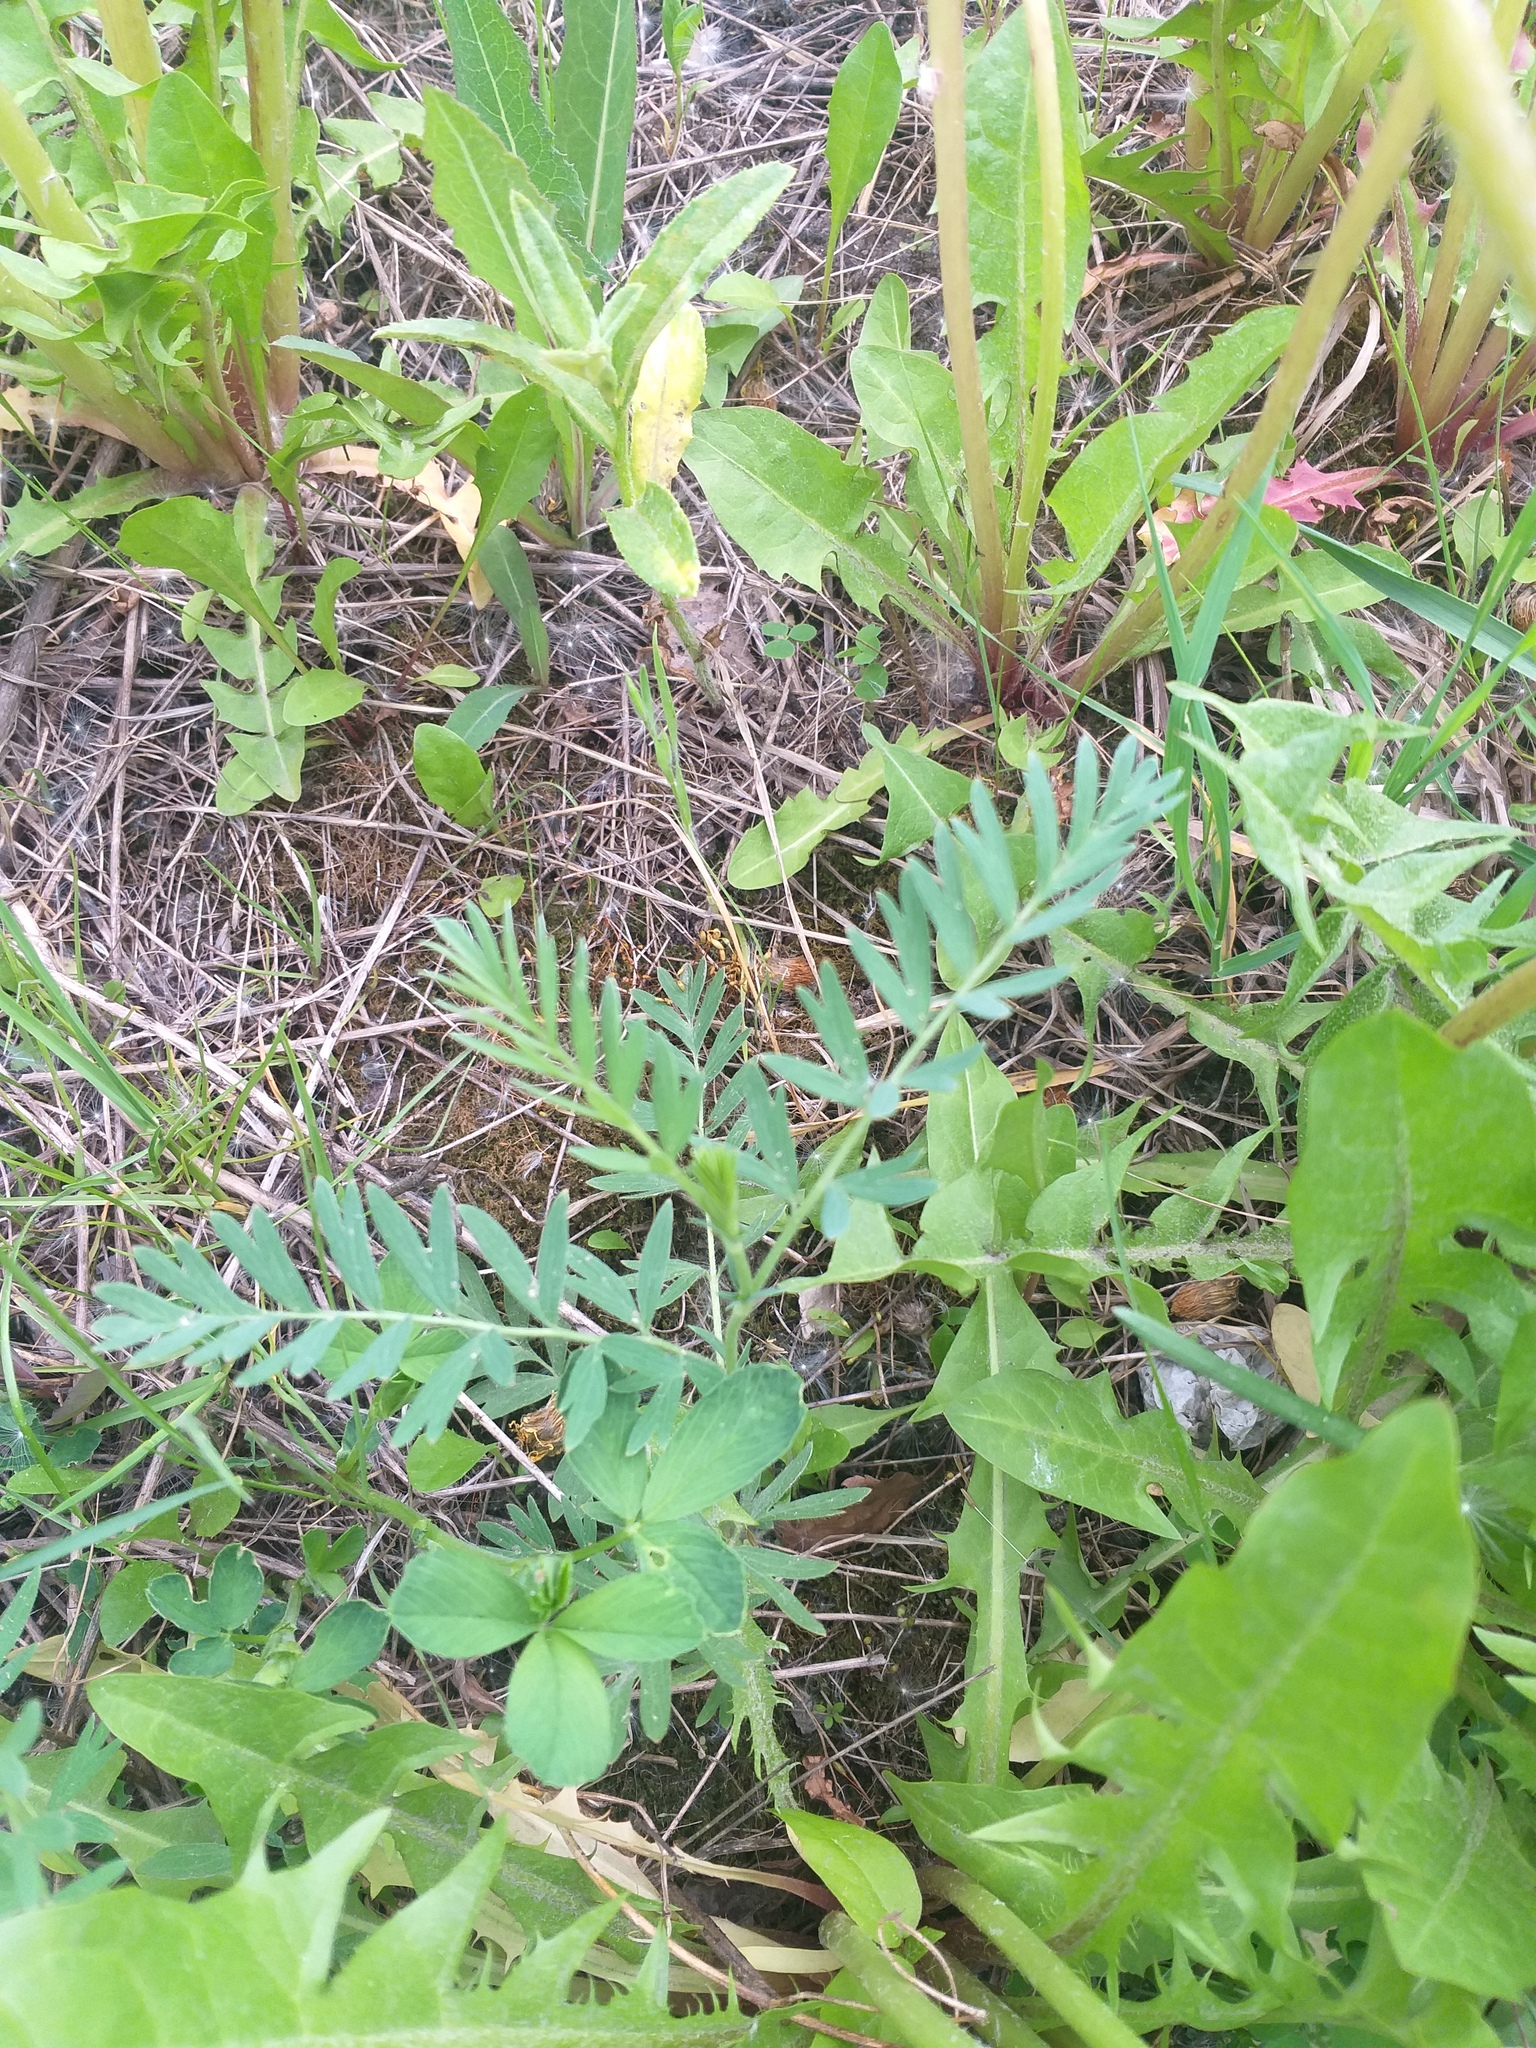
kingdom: Plantae
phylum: Tracheophyta
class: Magnoliopsida
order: Rosales
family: Rosaceae
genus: Sibbaldianthe
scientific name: Sibbaldianthe bifurca
